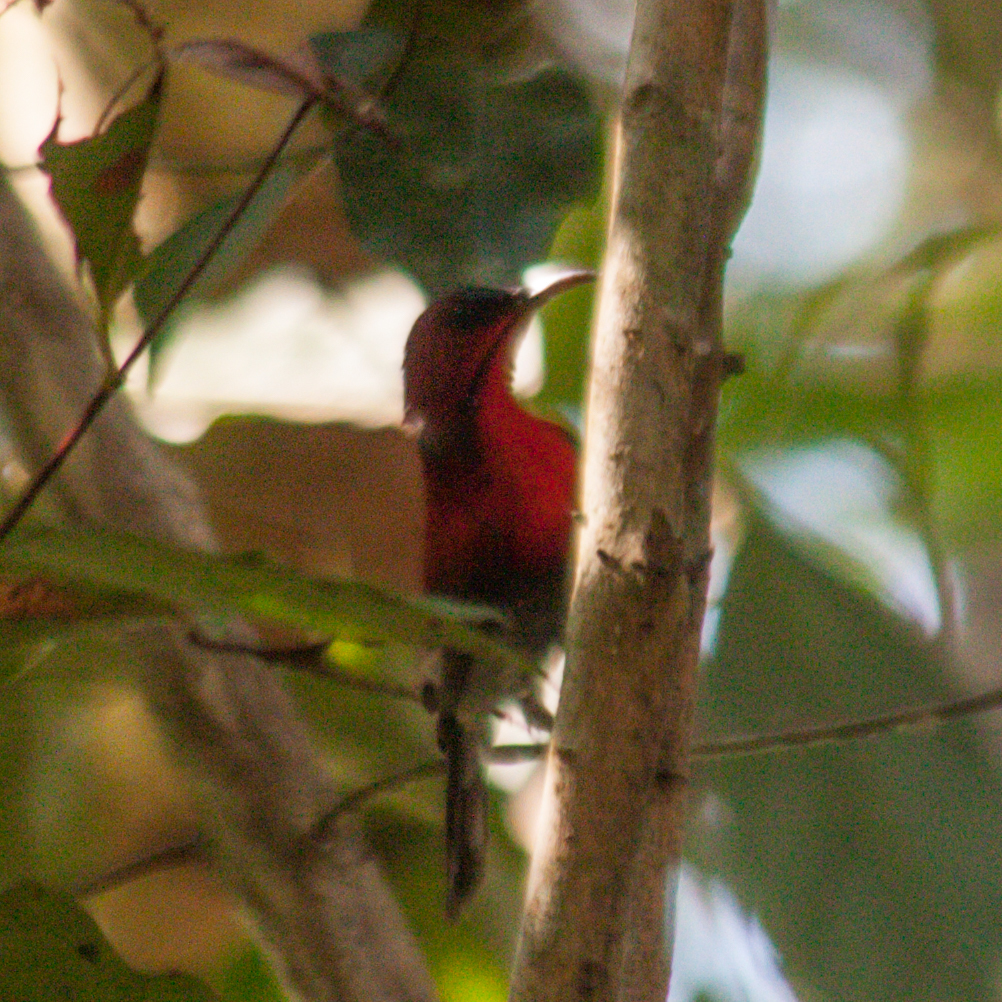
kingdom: Animalia
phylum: Chordata
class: Aves
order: Passeriformes
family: Nectariniidae
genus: Aethopyga
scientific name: Aethopyga siparaja
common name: Crimson sunbird
